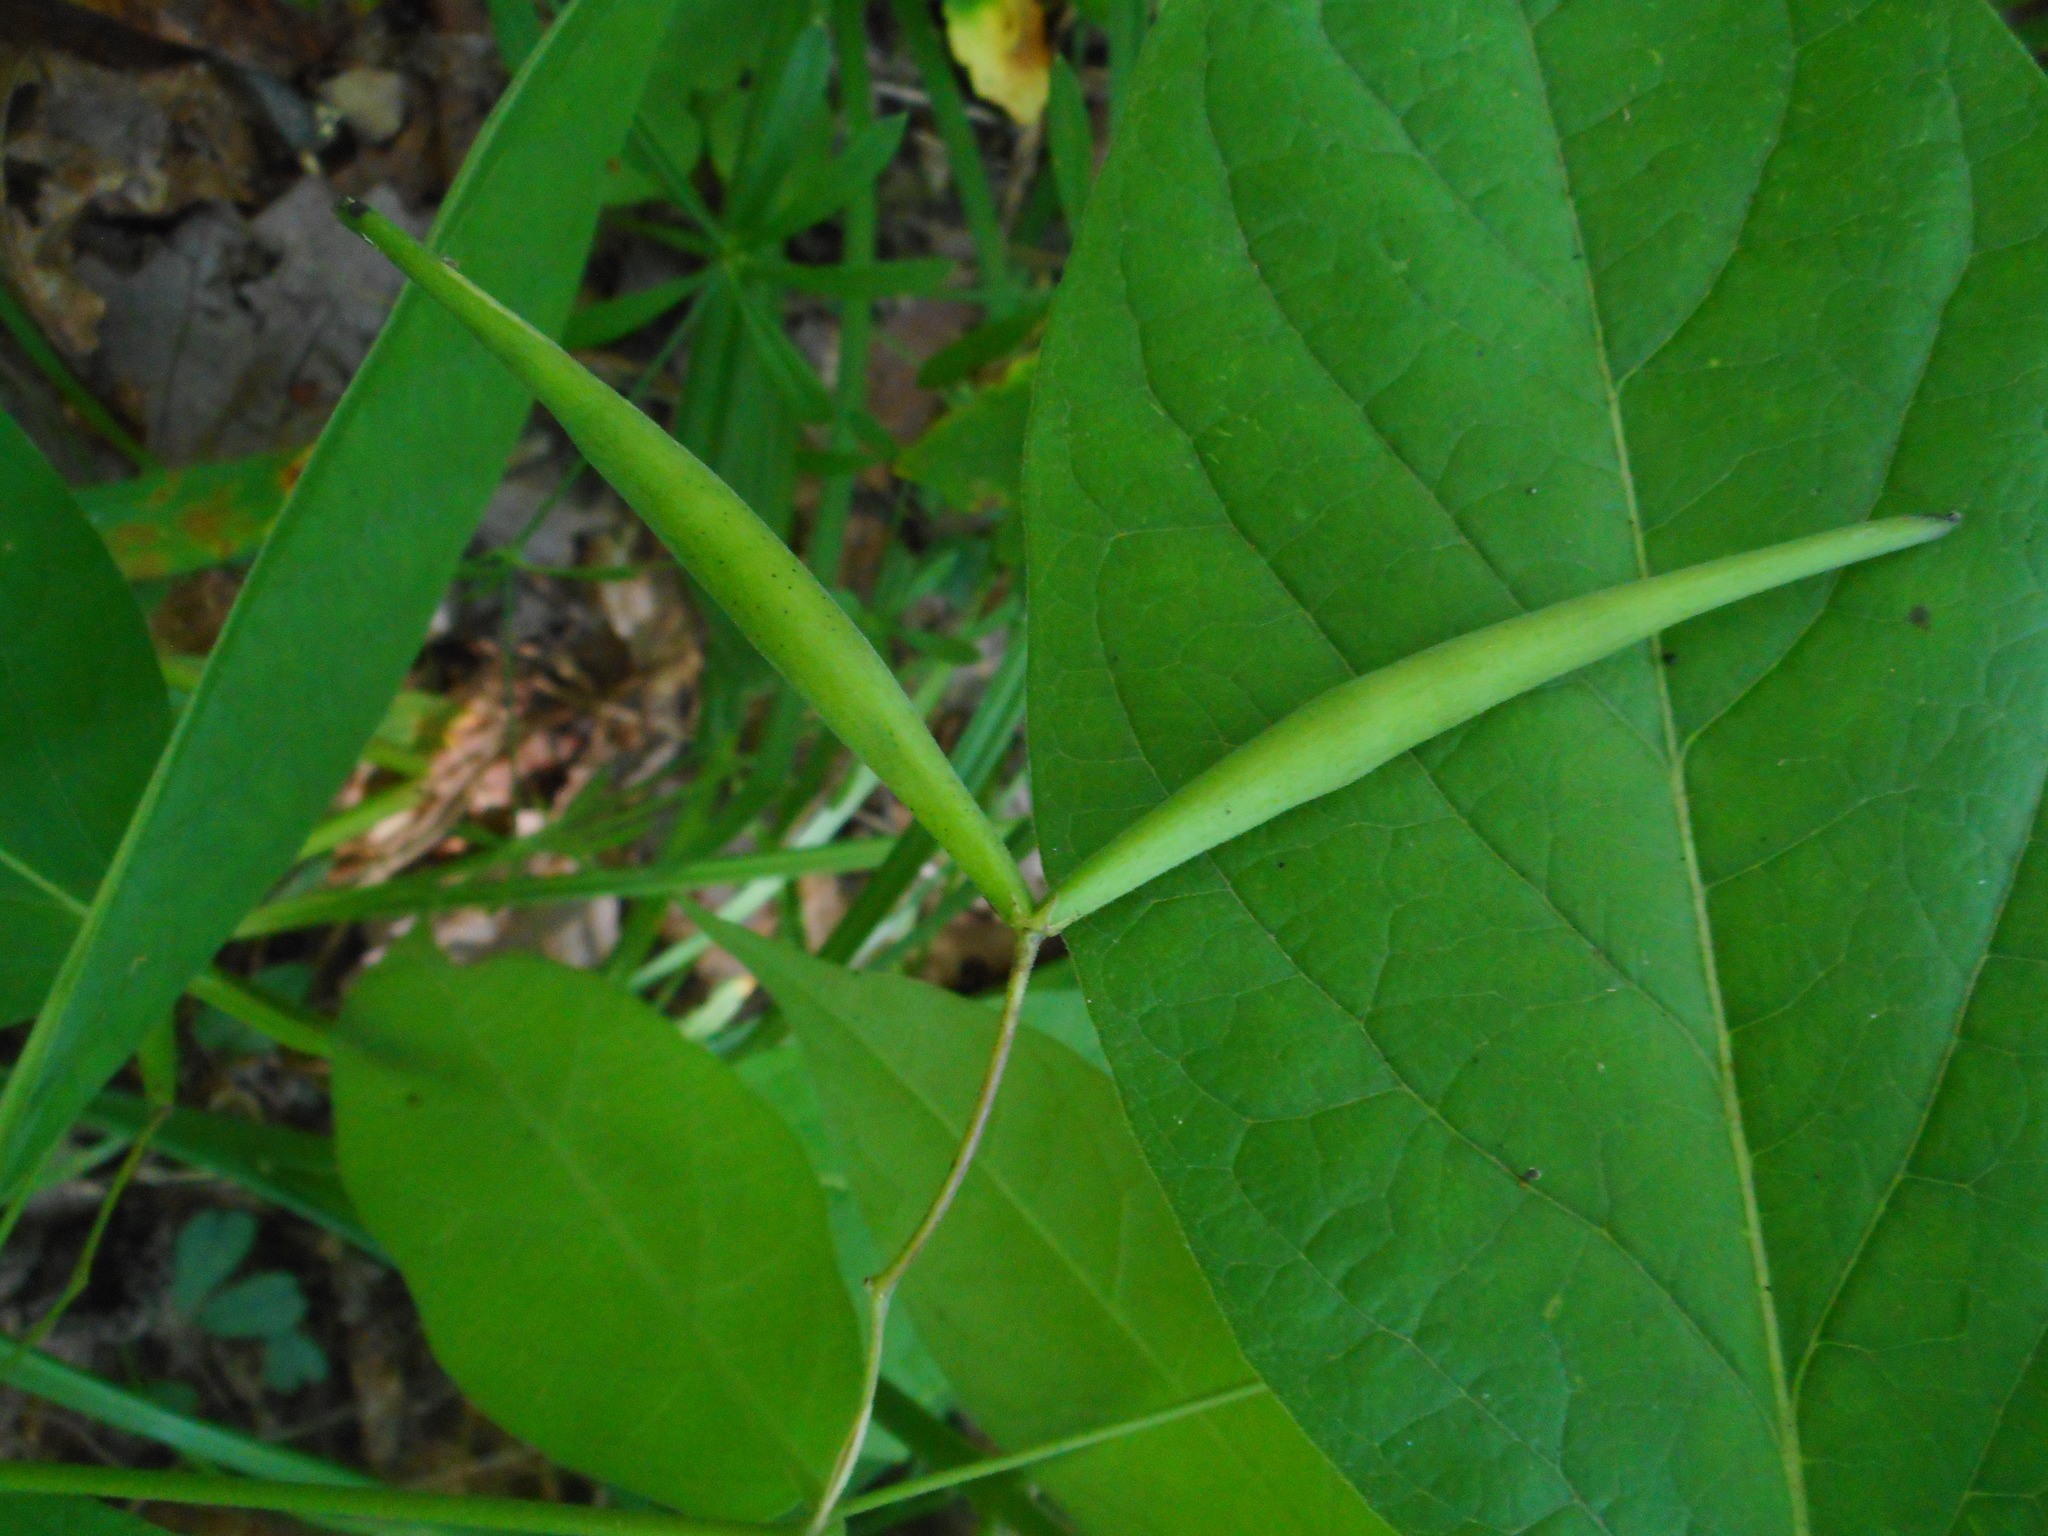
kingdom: Plantae
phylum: Tracheophyta
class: Magnoliopsida
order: Gentianales
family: Apocynaceae
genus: Vincetoxicum
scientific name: Vincetoxicum ascyrifolium
